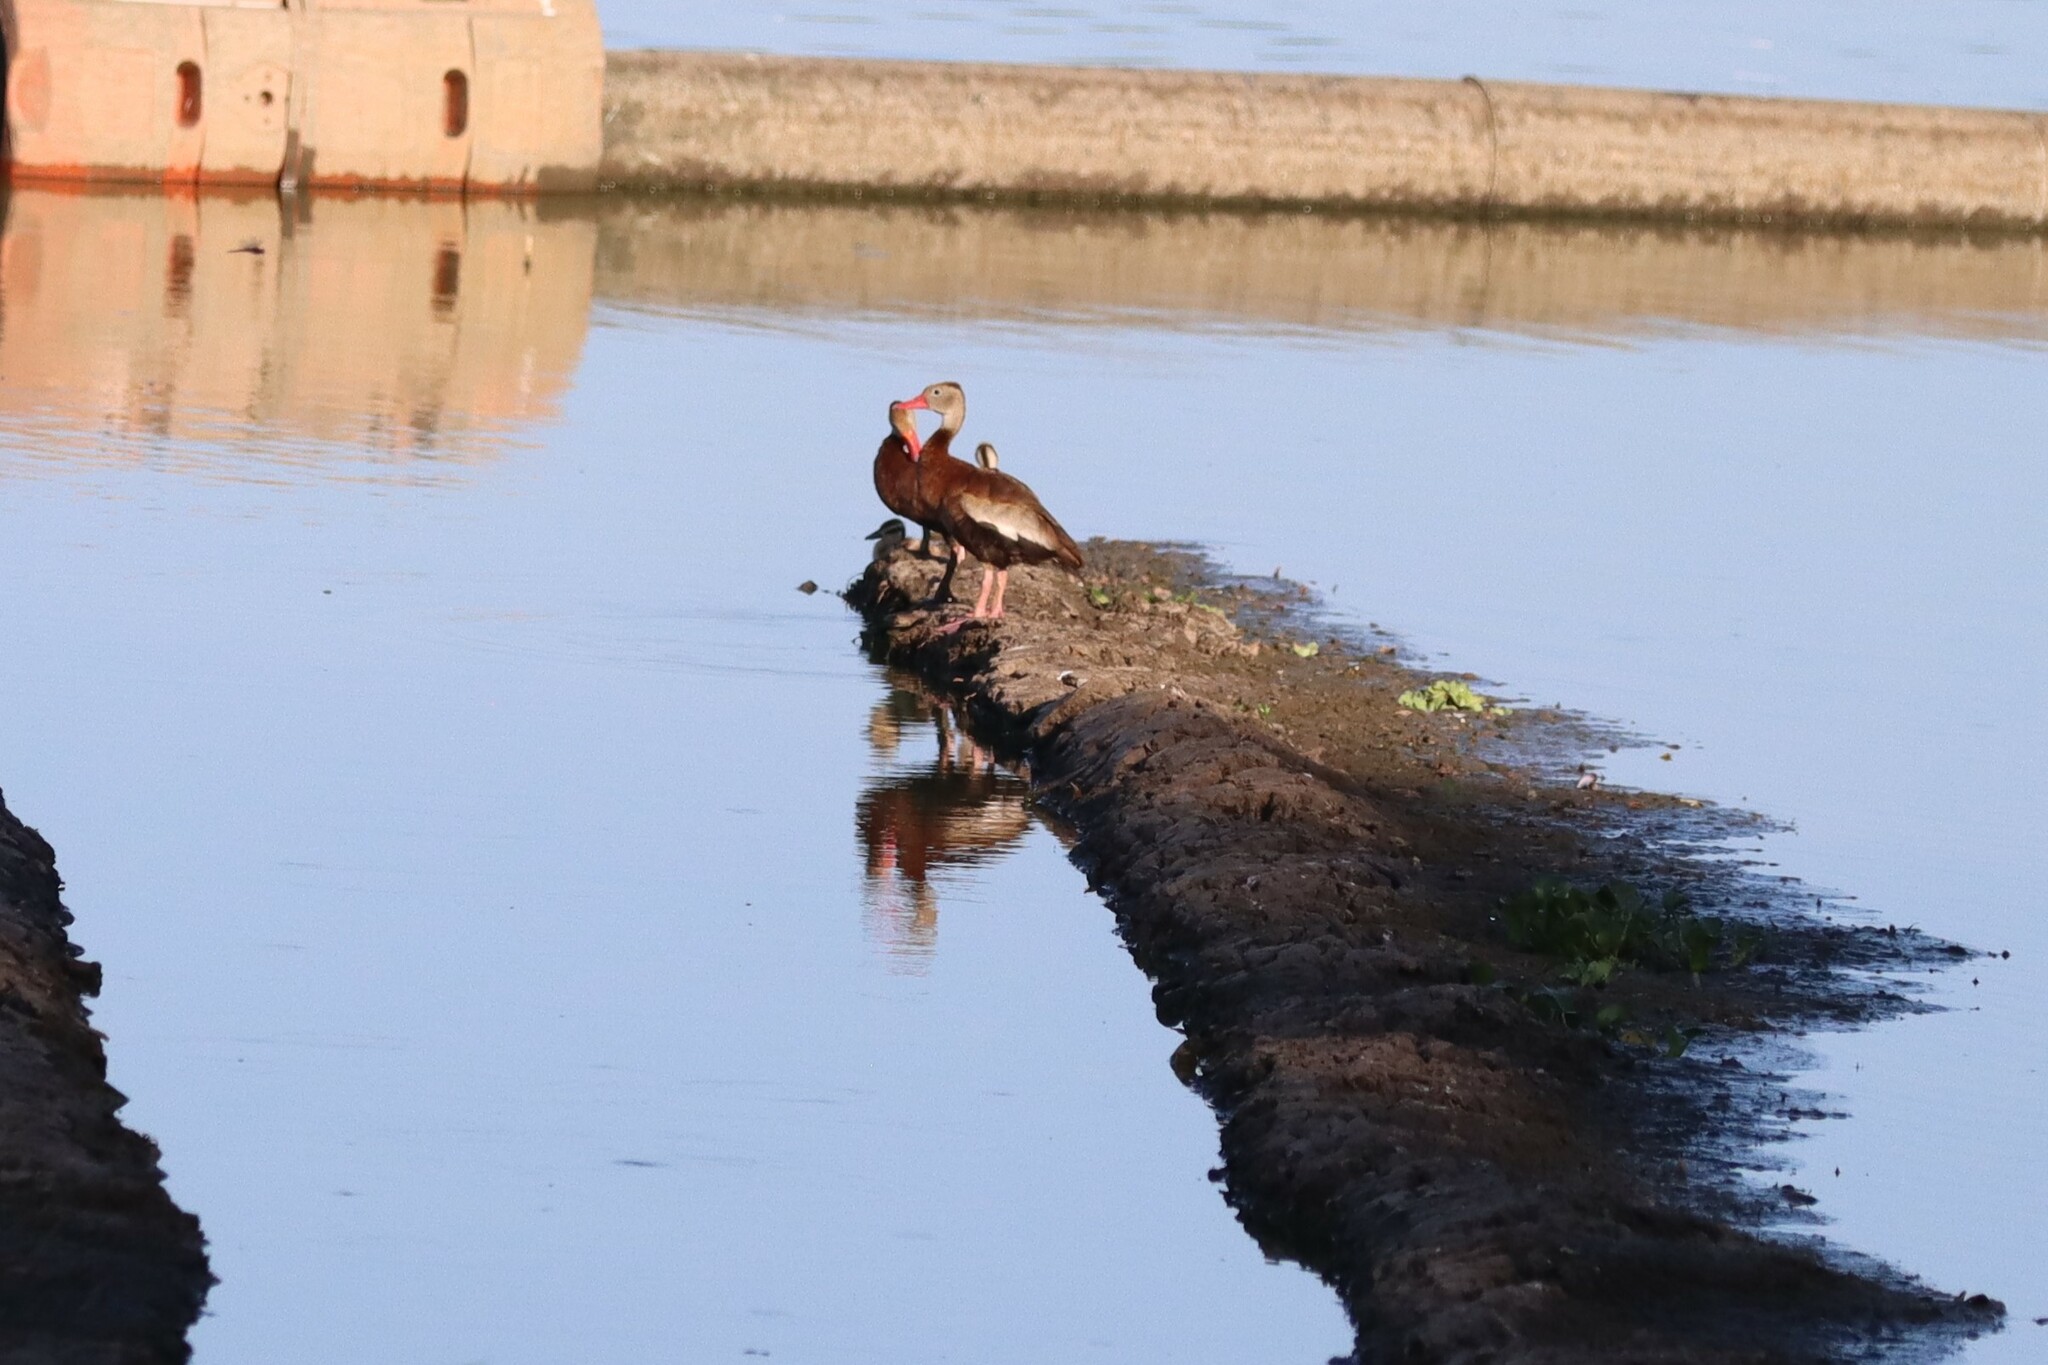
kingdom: Animalia
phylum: Chordata
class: Aves
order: Anseriformes
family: Anatidae
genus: Dendrocygna
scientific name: Dendrocygna autumnalis
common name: Black-bellied whistling duck
